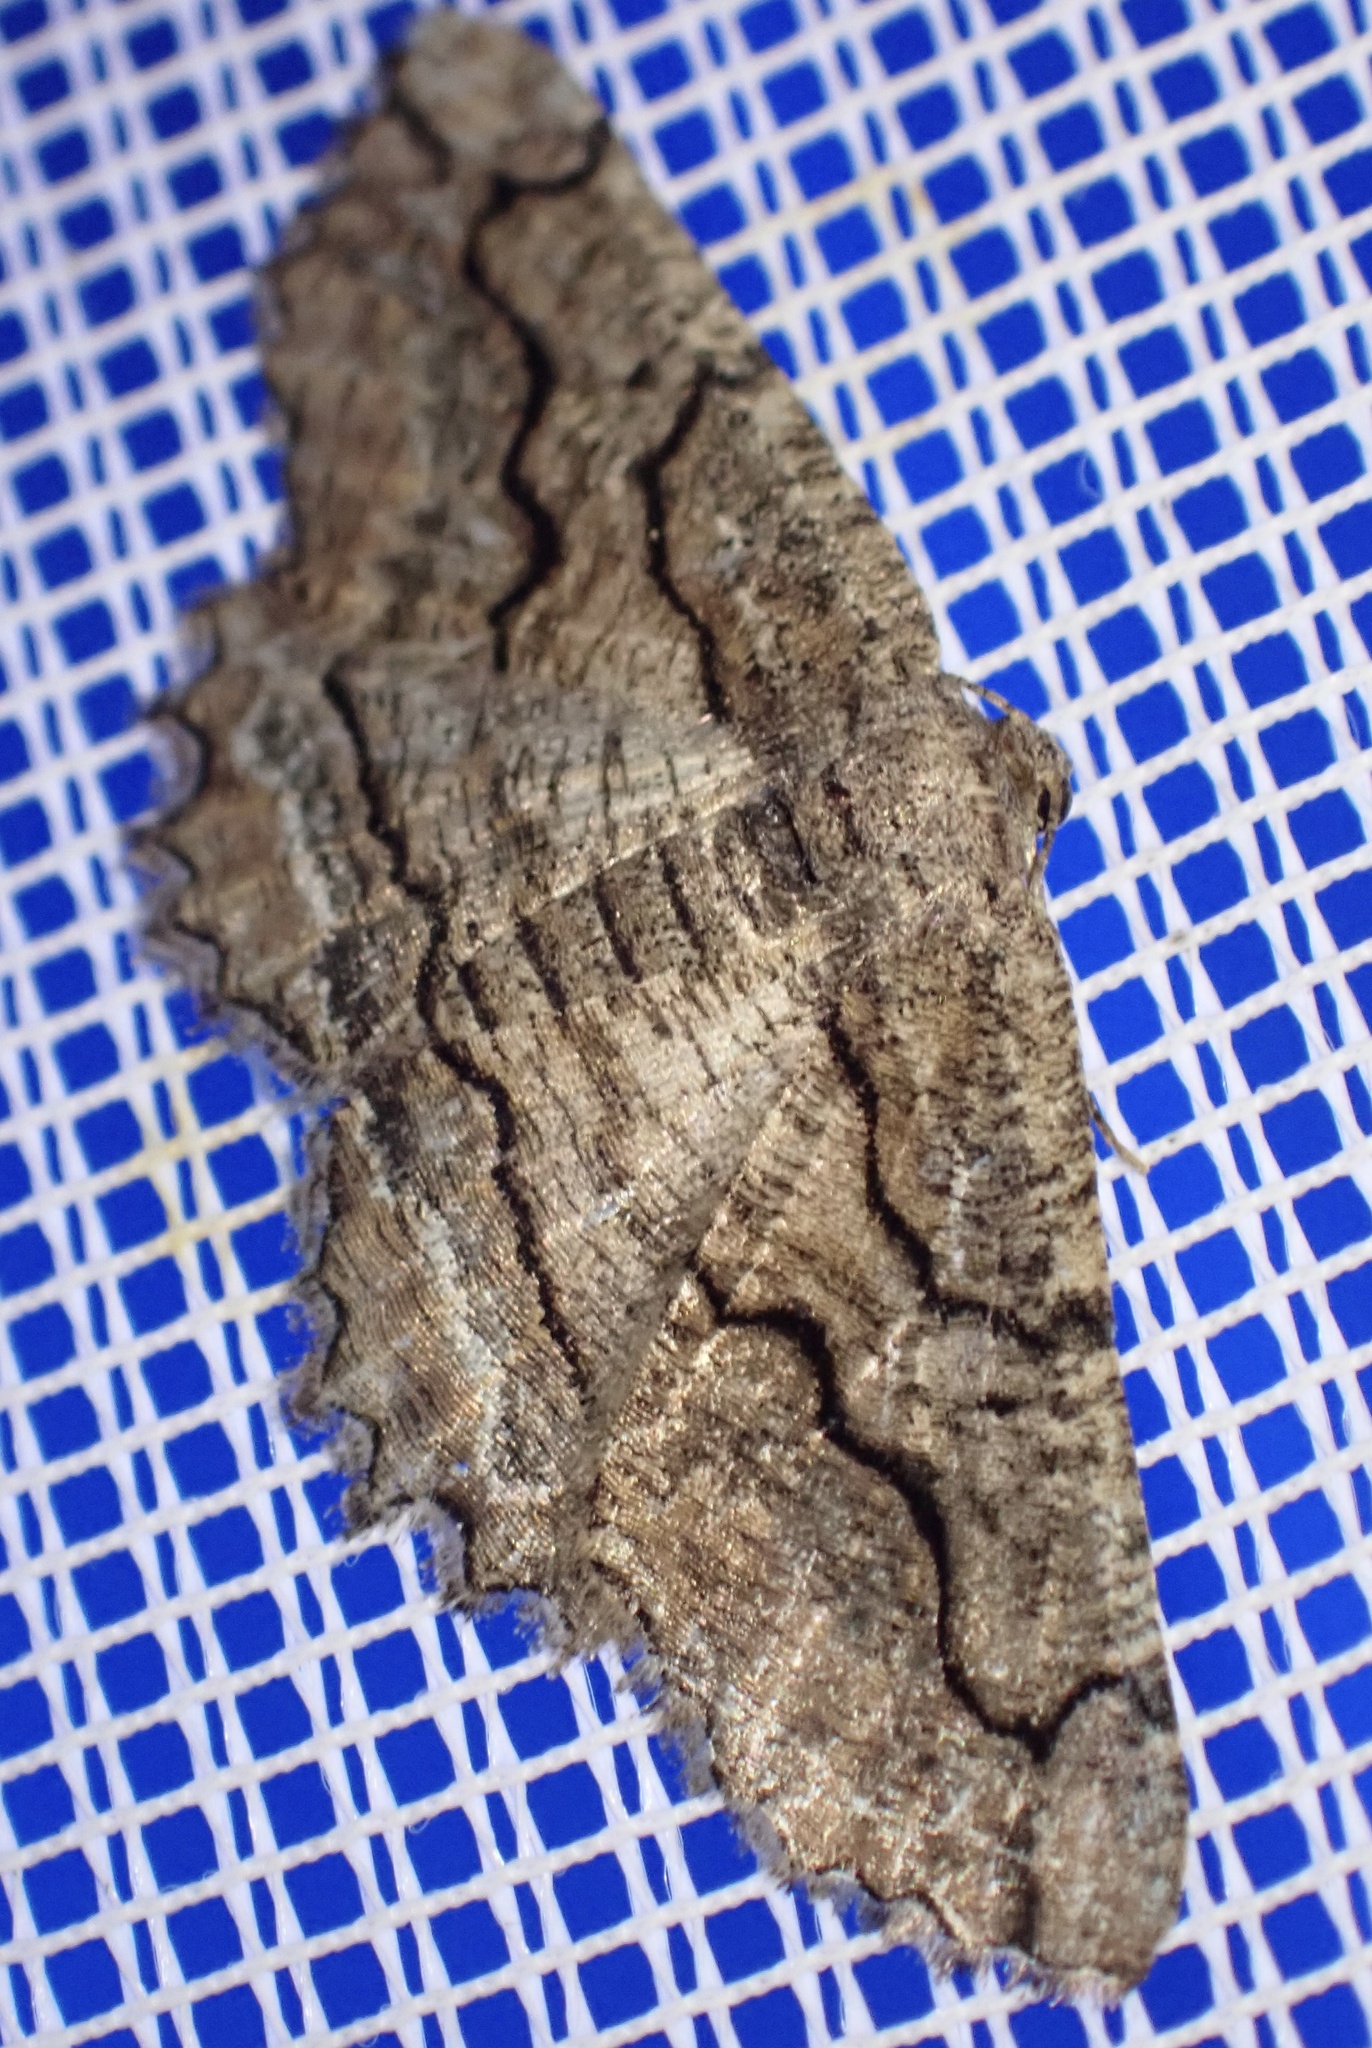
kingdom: Animalia
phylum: Arthropoda
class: Insecta
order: Lepidoptera
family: Geometridae
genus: Menophra
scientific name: Menophra japygiaria
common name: Brassy waved umber
